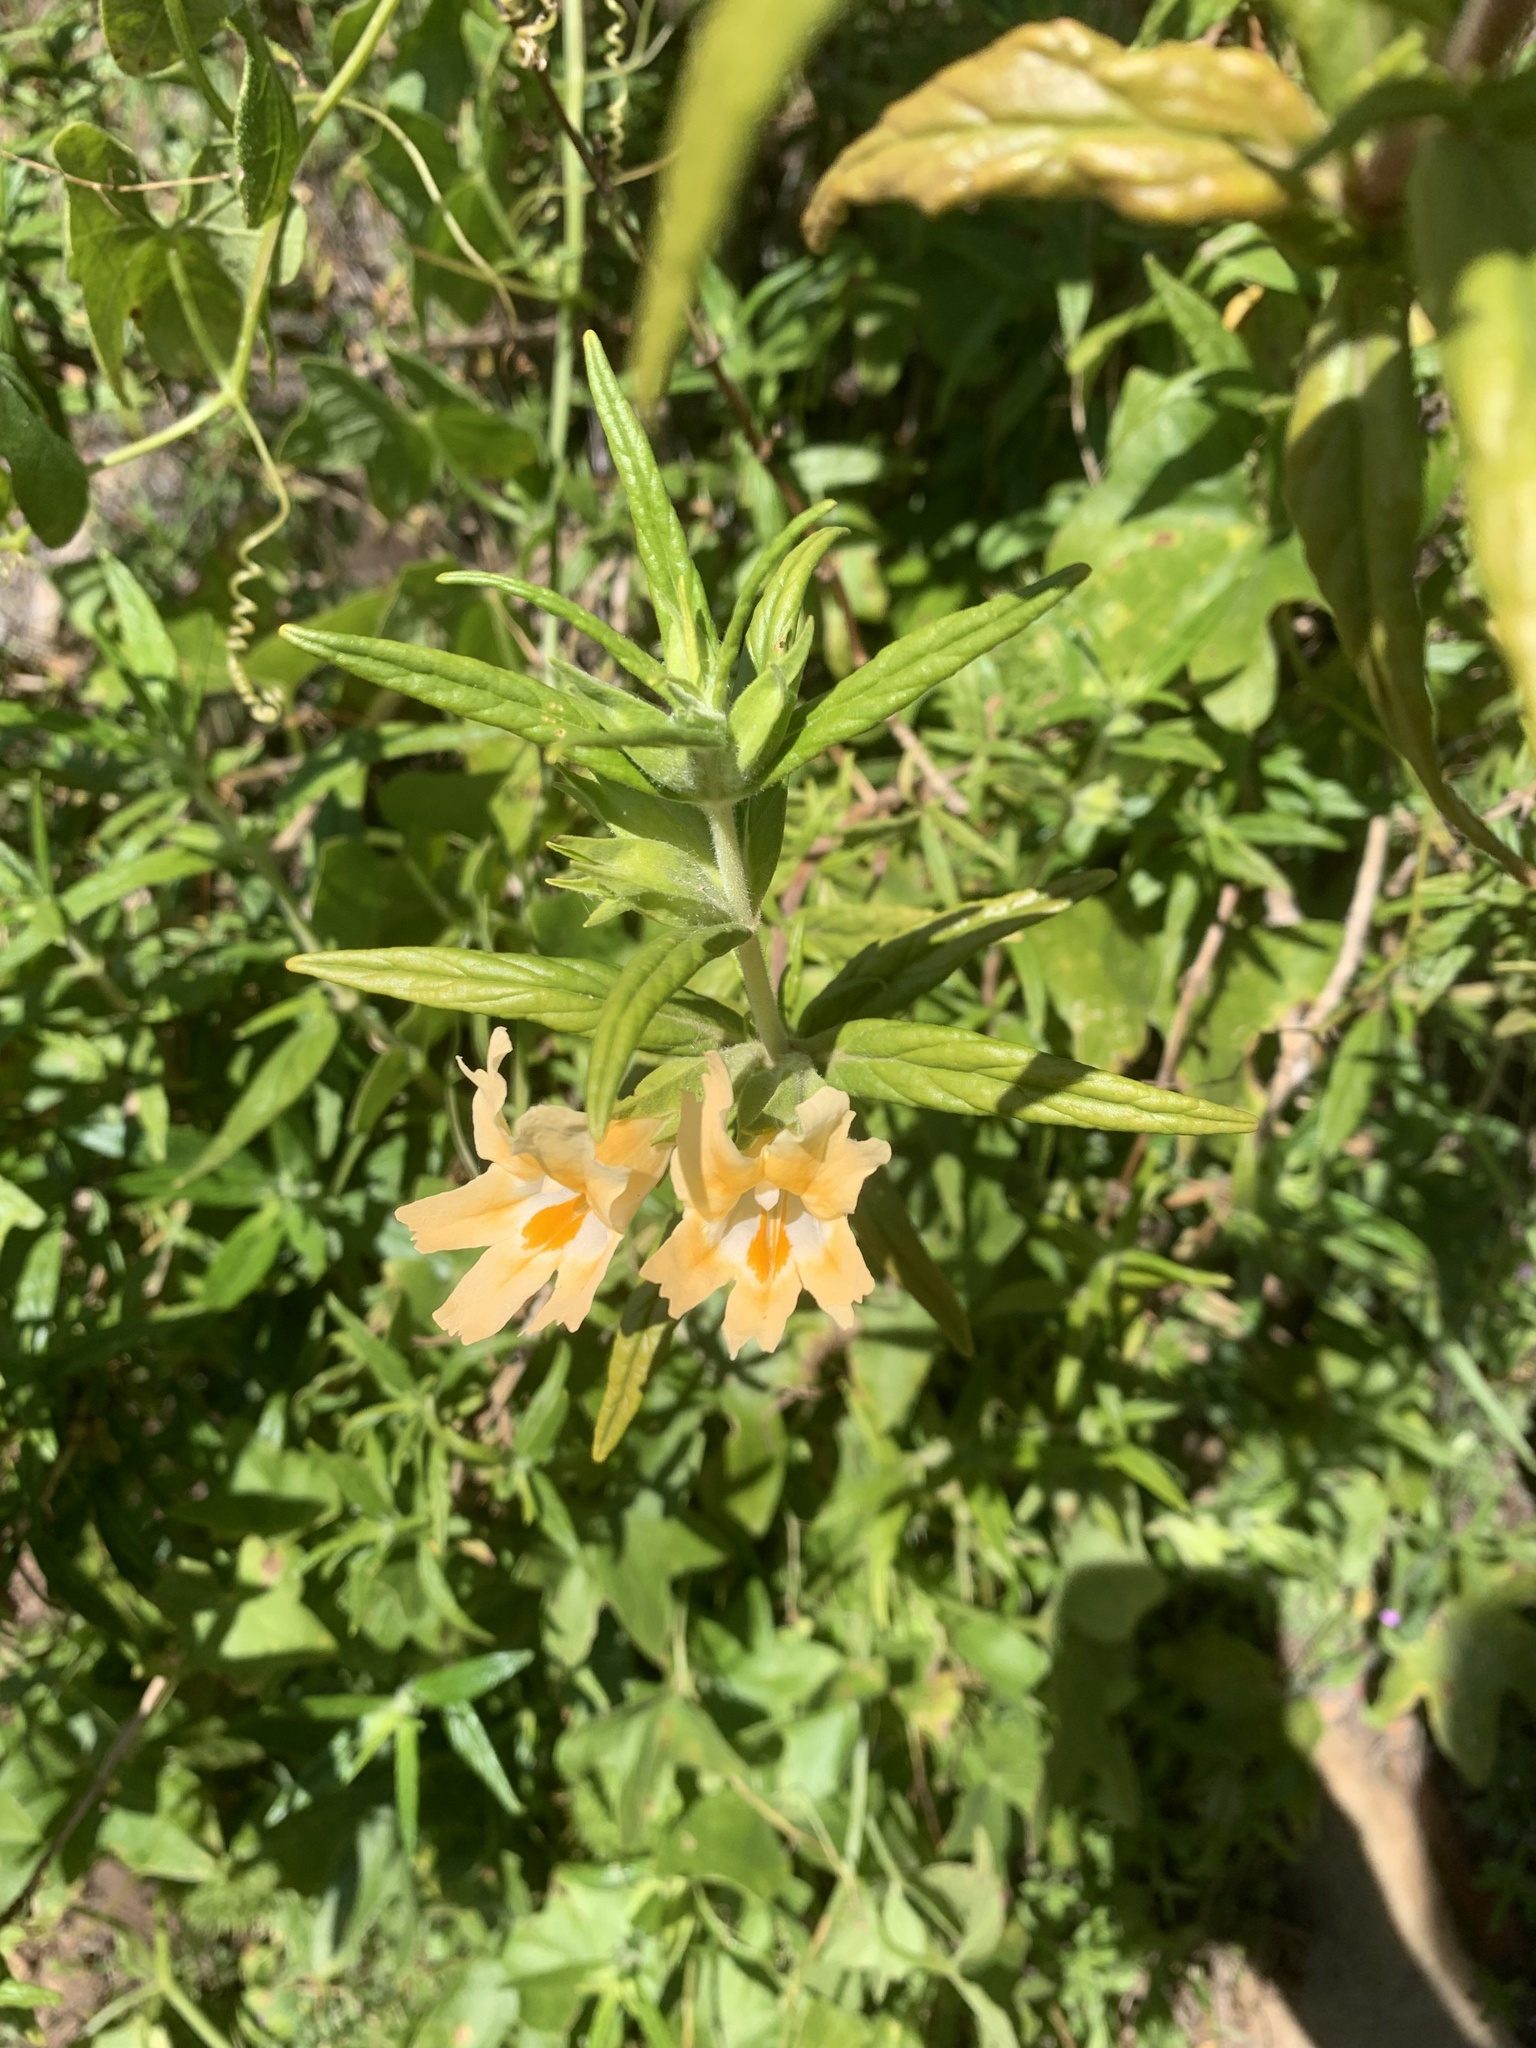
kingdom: Plantae
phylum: Tracheophyta
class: Magnoliopsida
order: Lamiales
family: Phrymaceae
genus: Diplacus
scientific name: Diplacus longiflorus
